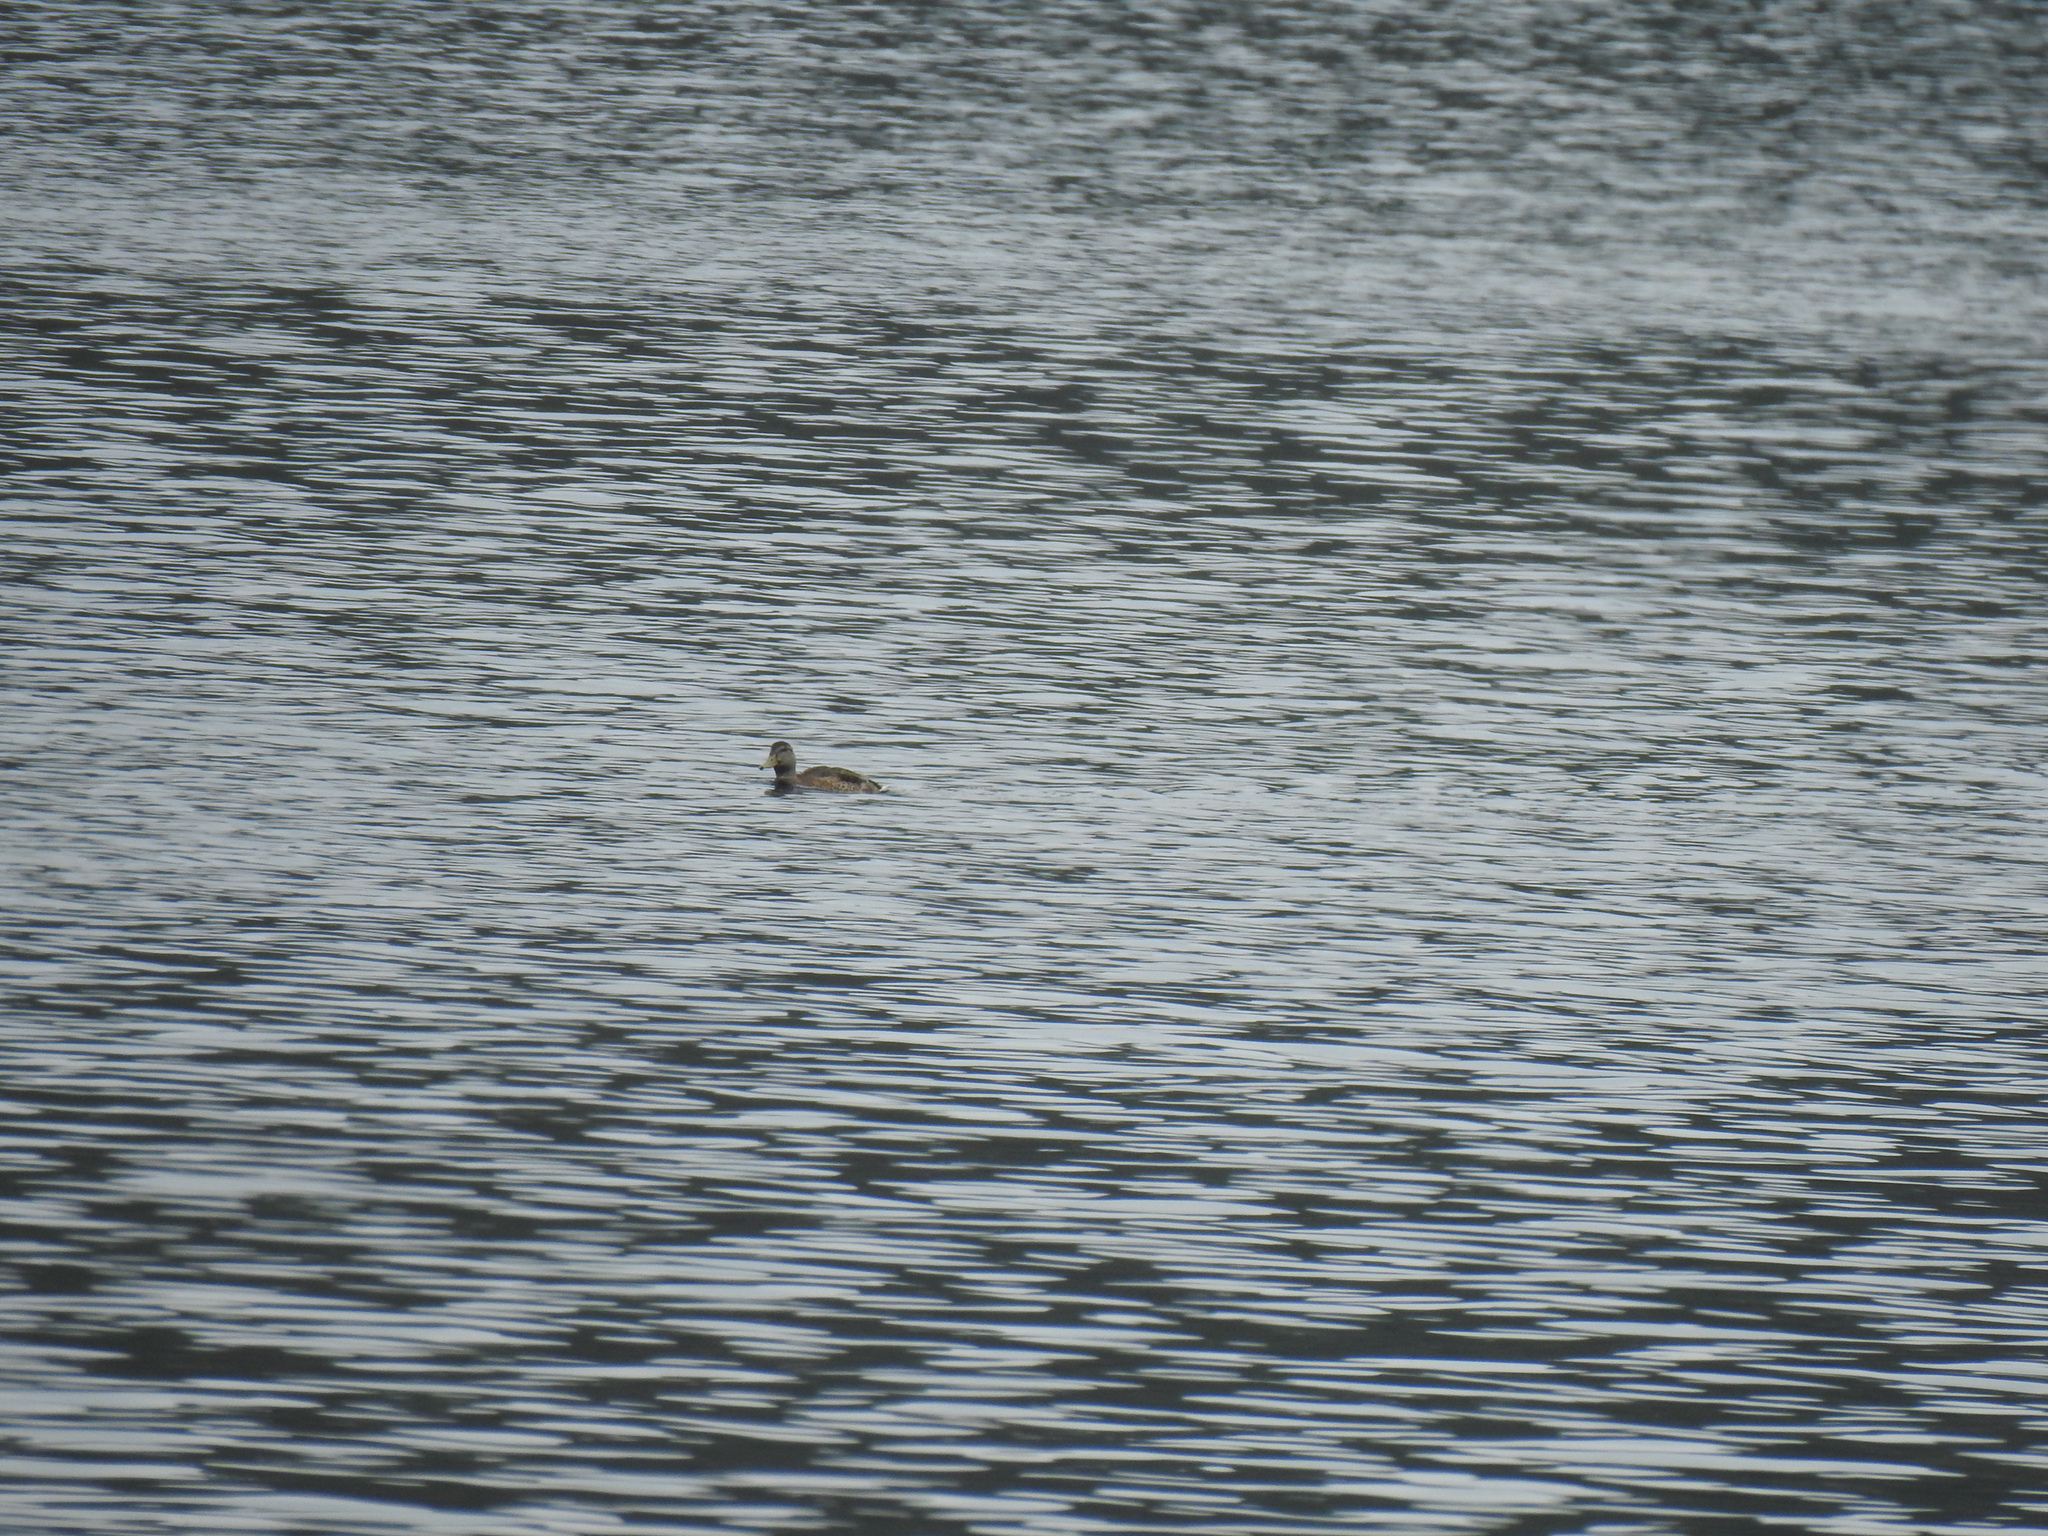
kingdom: Animalia
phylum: Chordata
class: Aves
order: Anseriformes
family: Anatidae
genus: Anas
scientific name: Anas platyrhynchos
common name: Mallard
